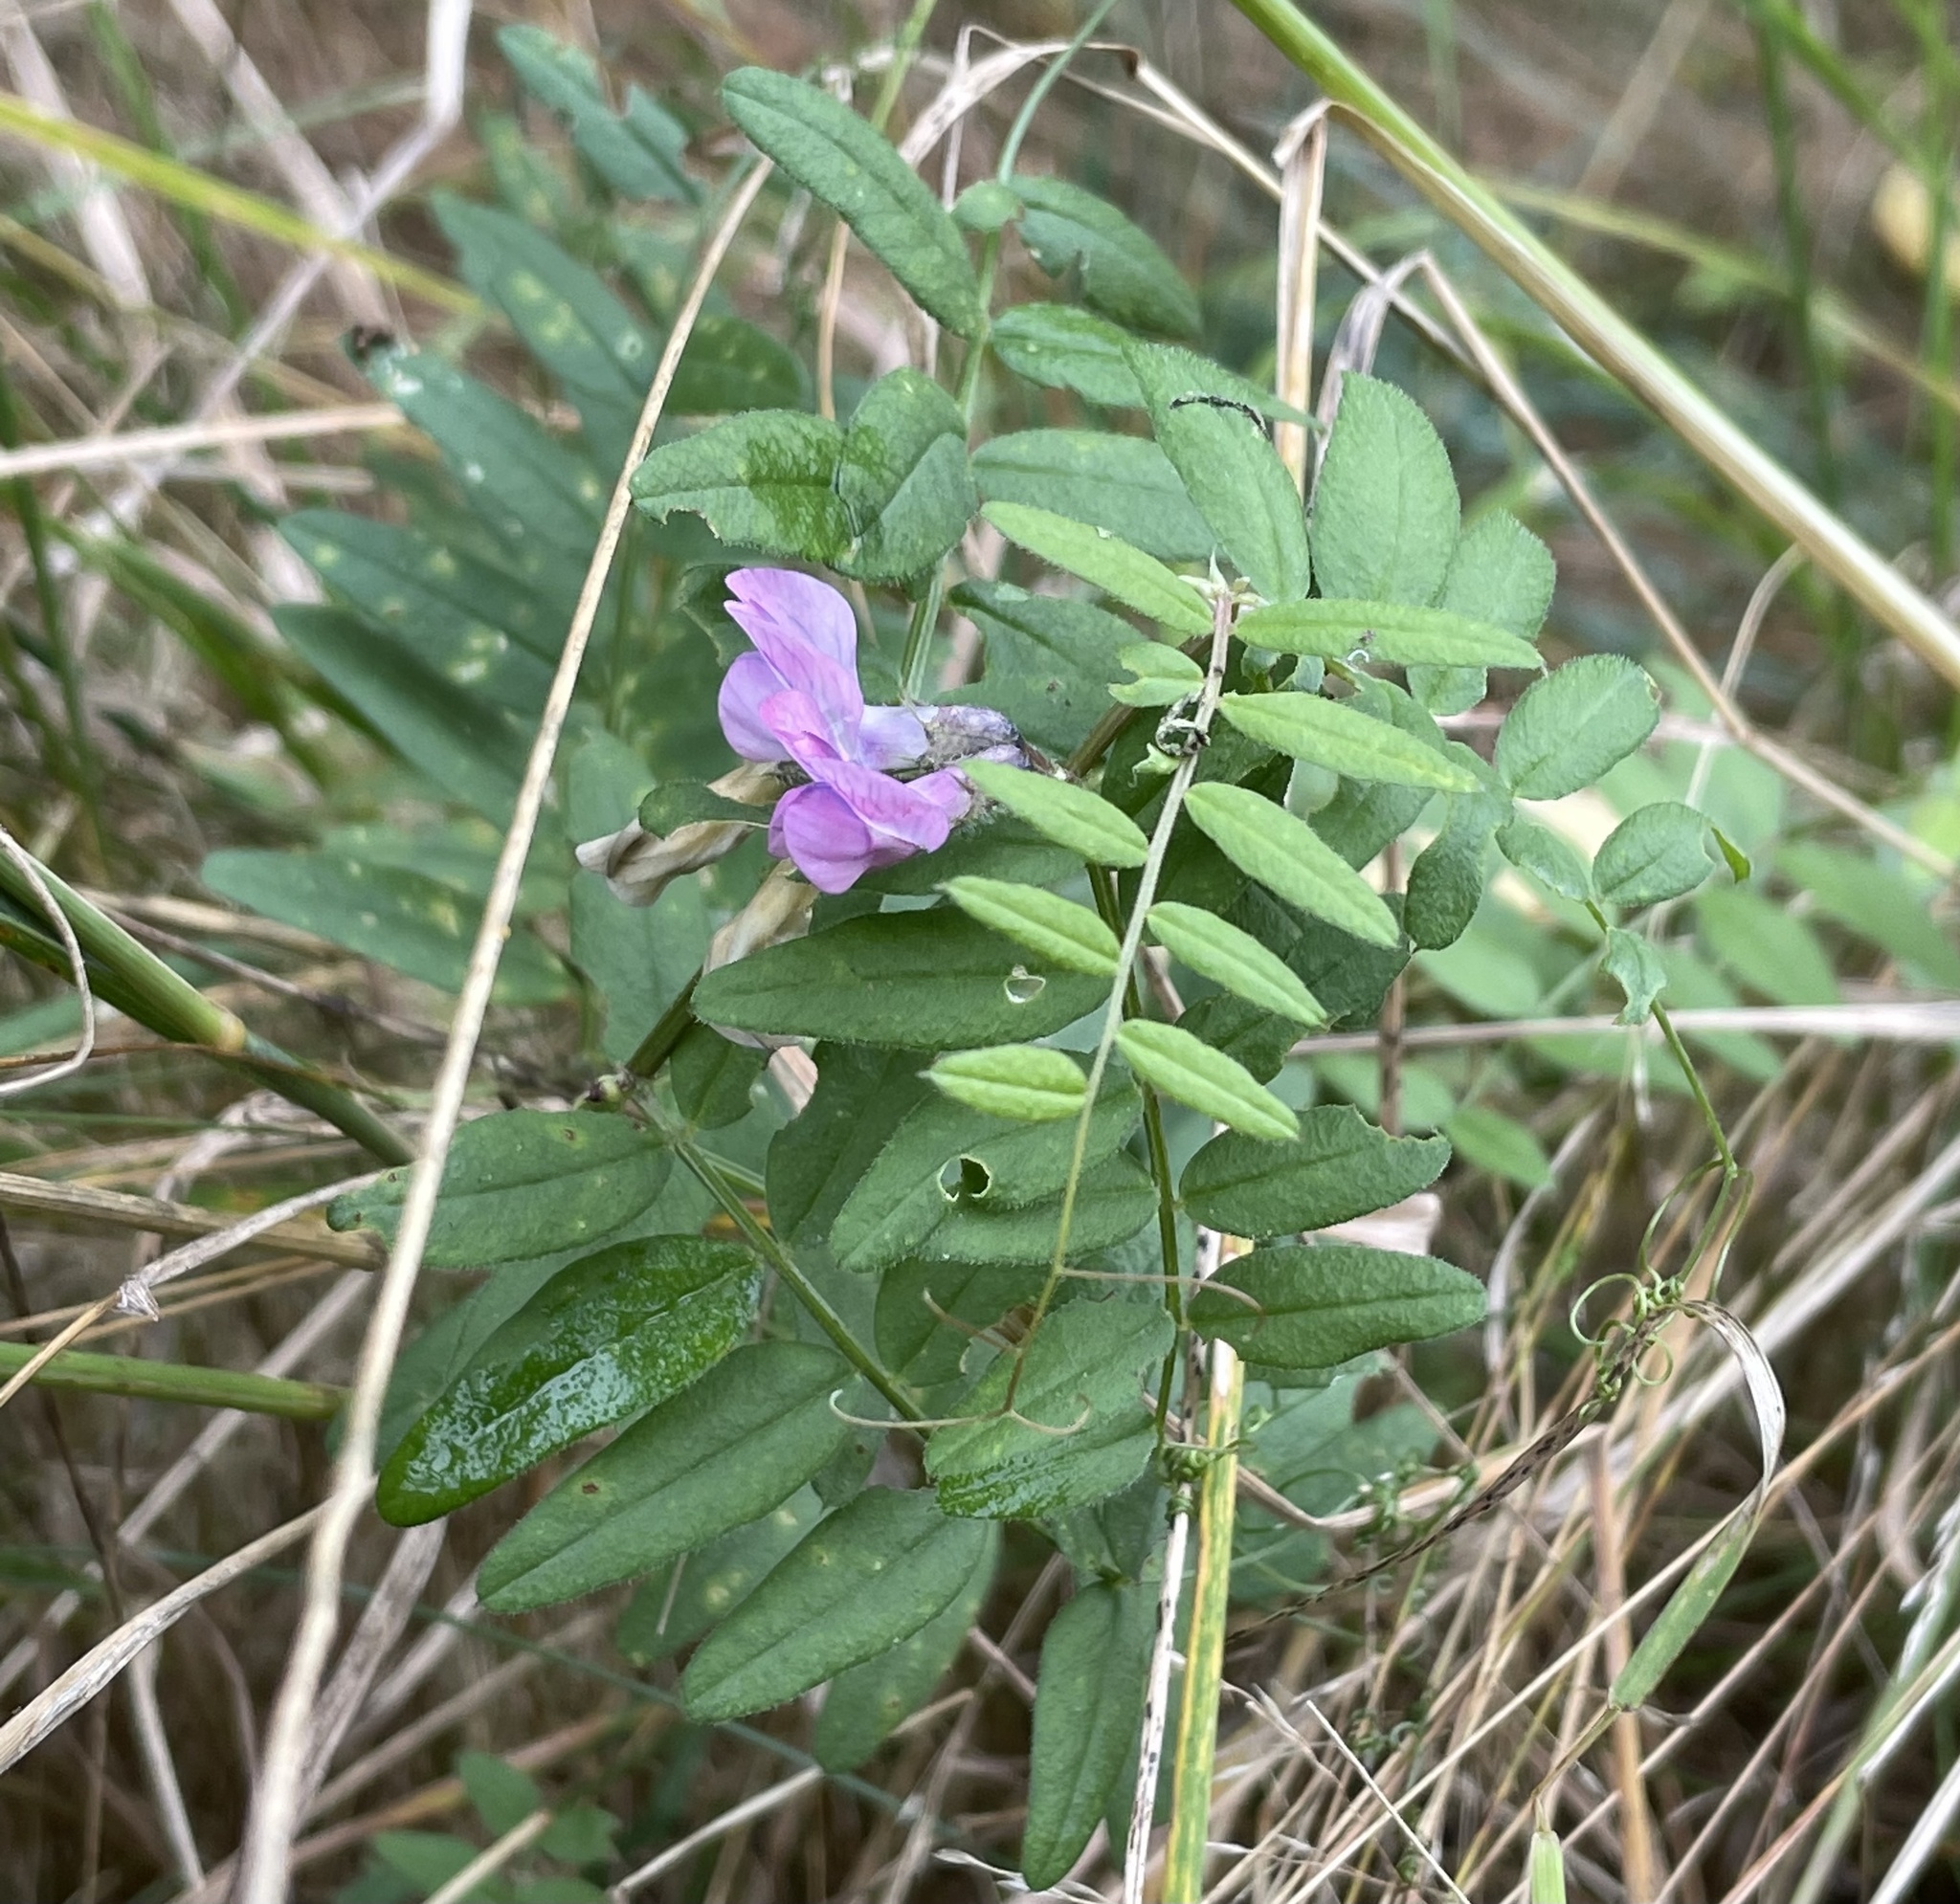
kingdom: Plantae
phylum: Tracheophyta
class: Magnoliopsida
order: Fabales
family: Fabaceae
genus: Vicia
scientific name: Vicia sepium
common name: Bush vetch
